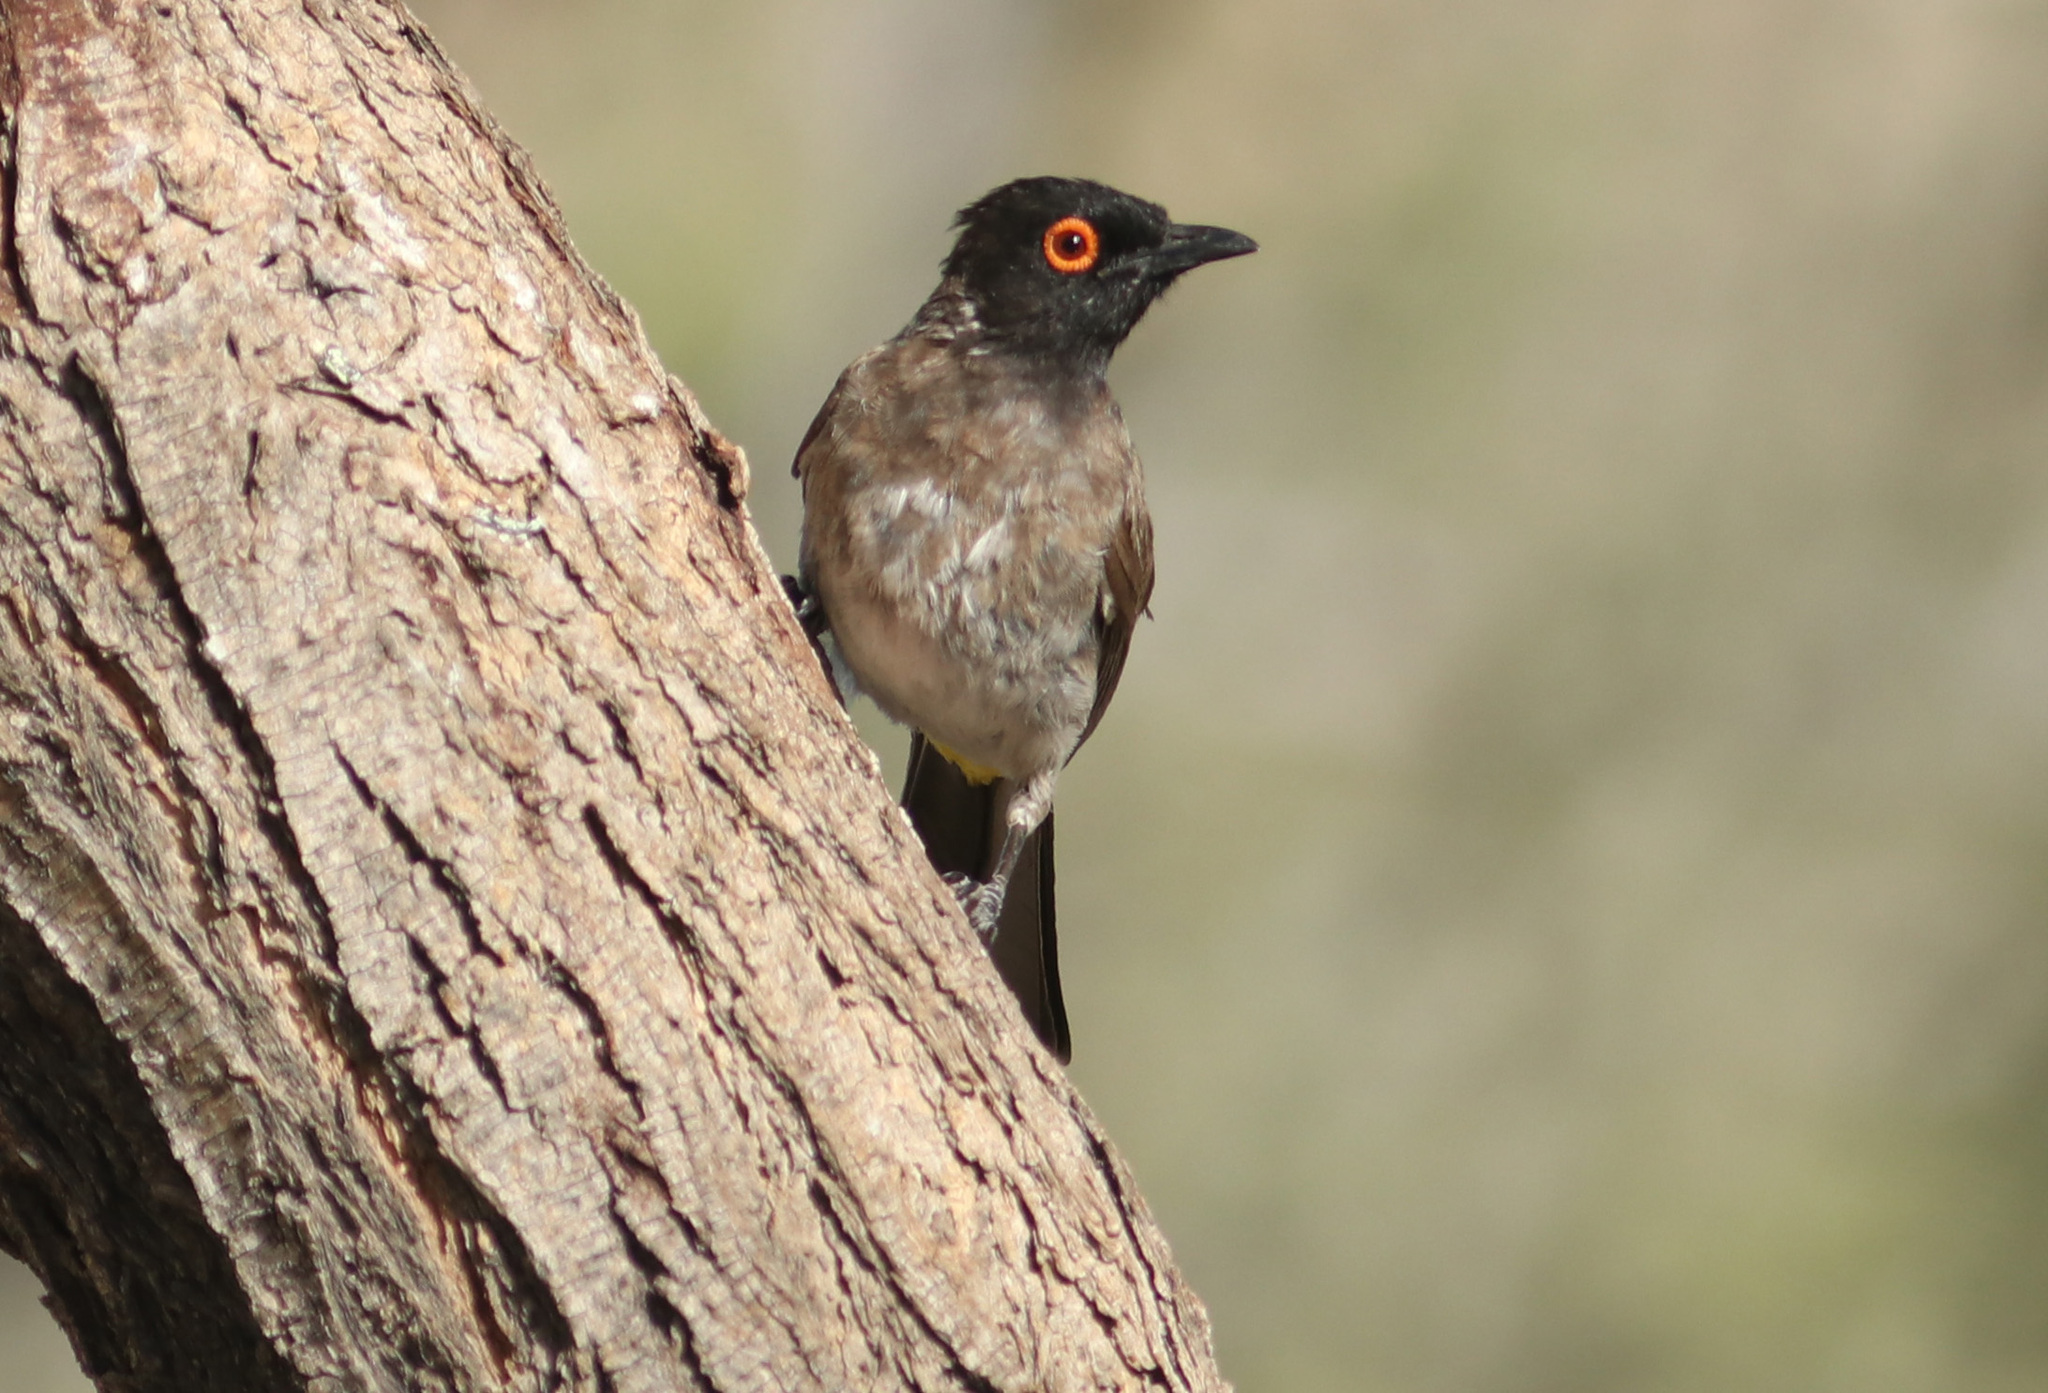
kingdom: Animalia
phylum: Chordata
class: Aves
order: Passeriformes
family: Pycnonotidae
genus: Pycnonotus
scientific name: Pycnonotus nigricans
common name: African red-eyed bulbul
